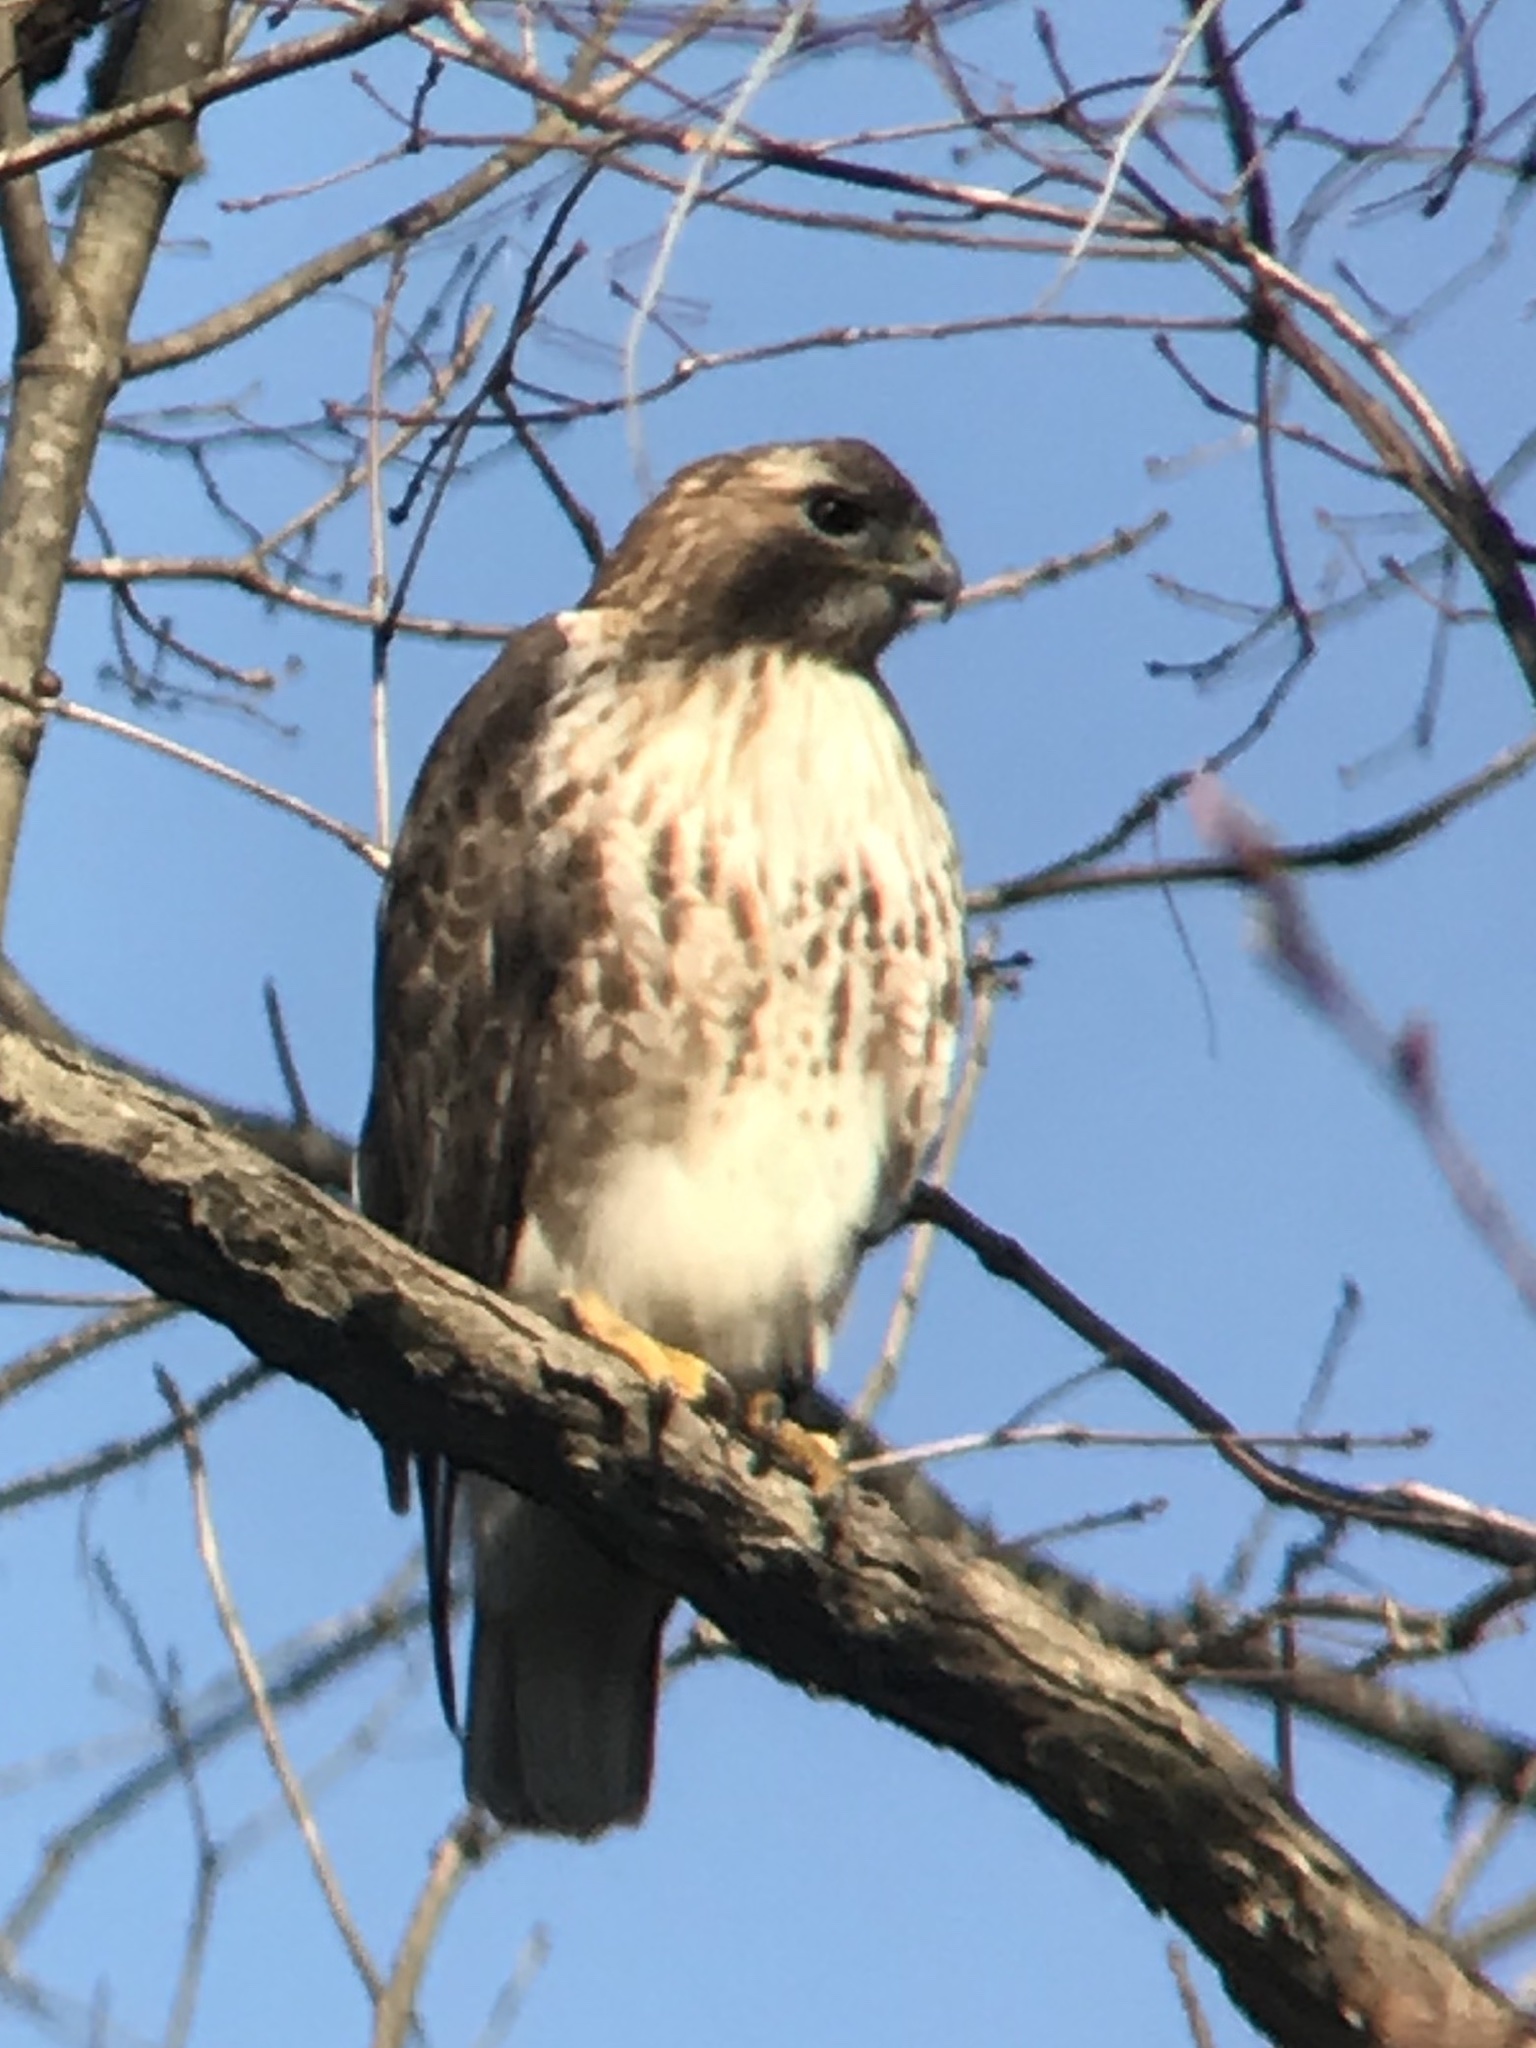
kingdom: Animalia
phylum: Chordata
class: Aves
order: Accipitriformes
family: Accipitridae
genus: Buteo
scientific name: Buteo jamaicensis
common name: Red-tailed hawk
